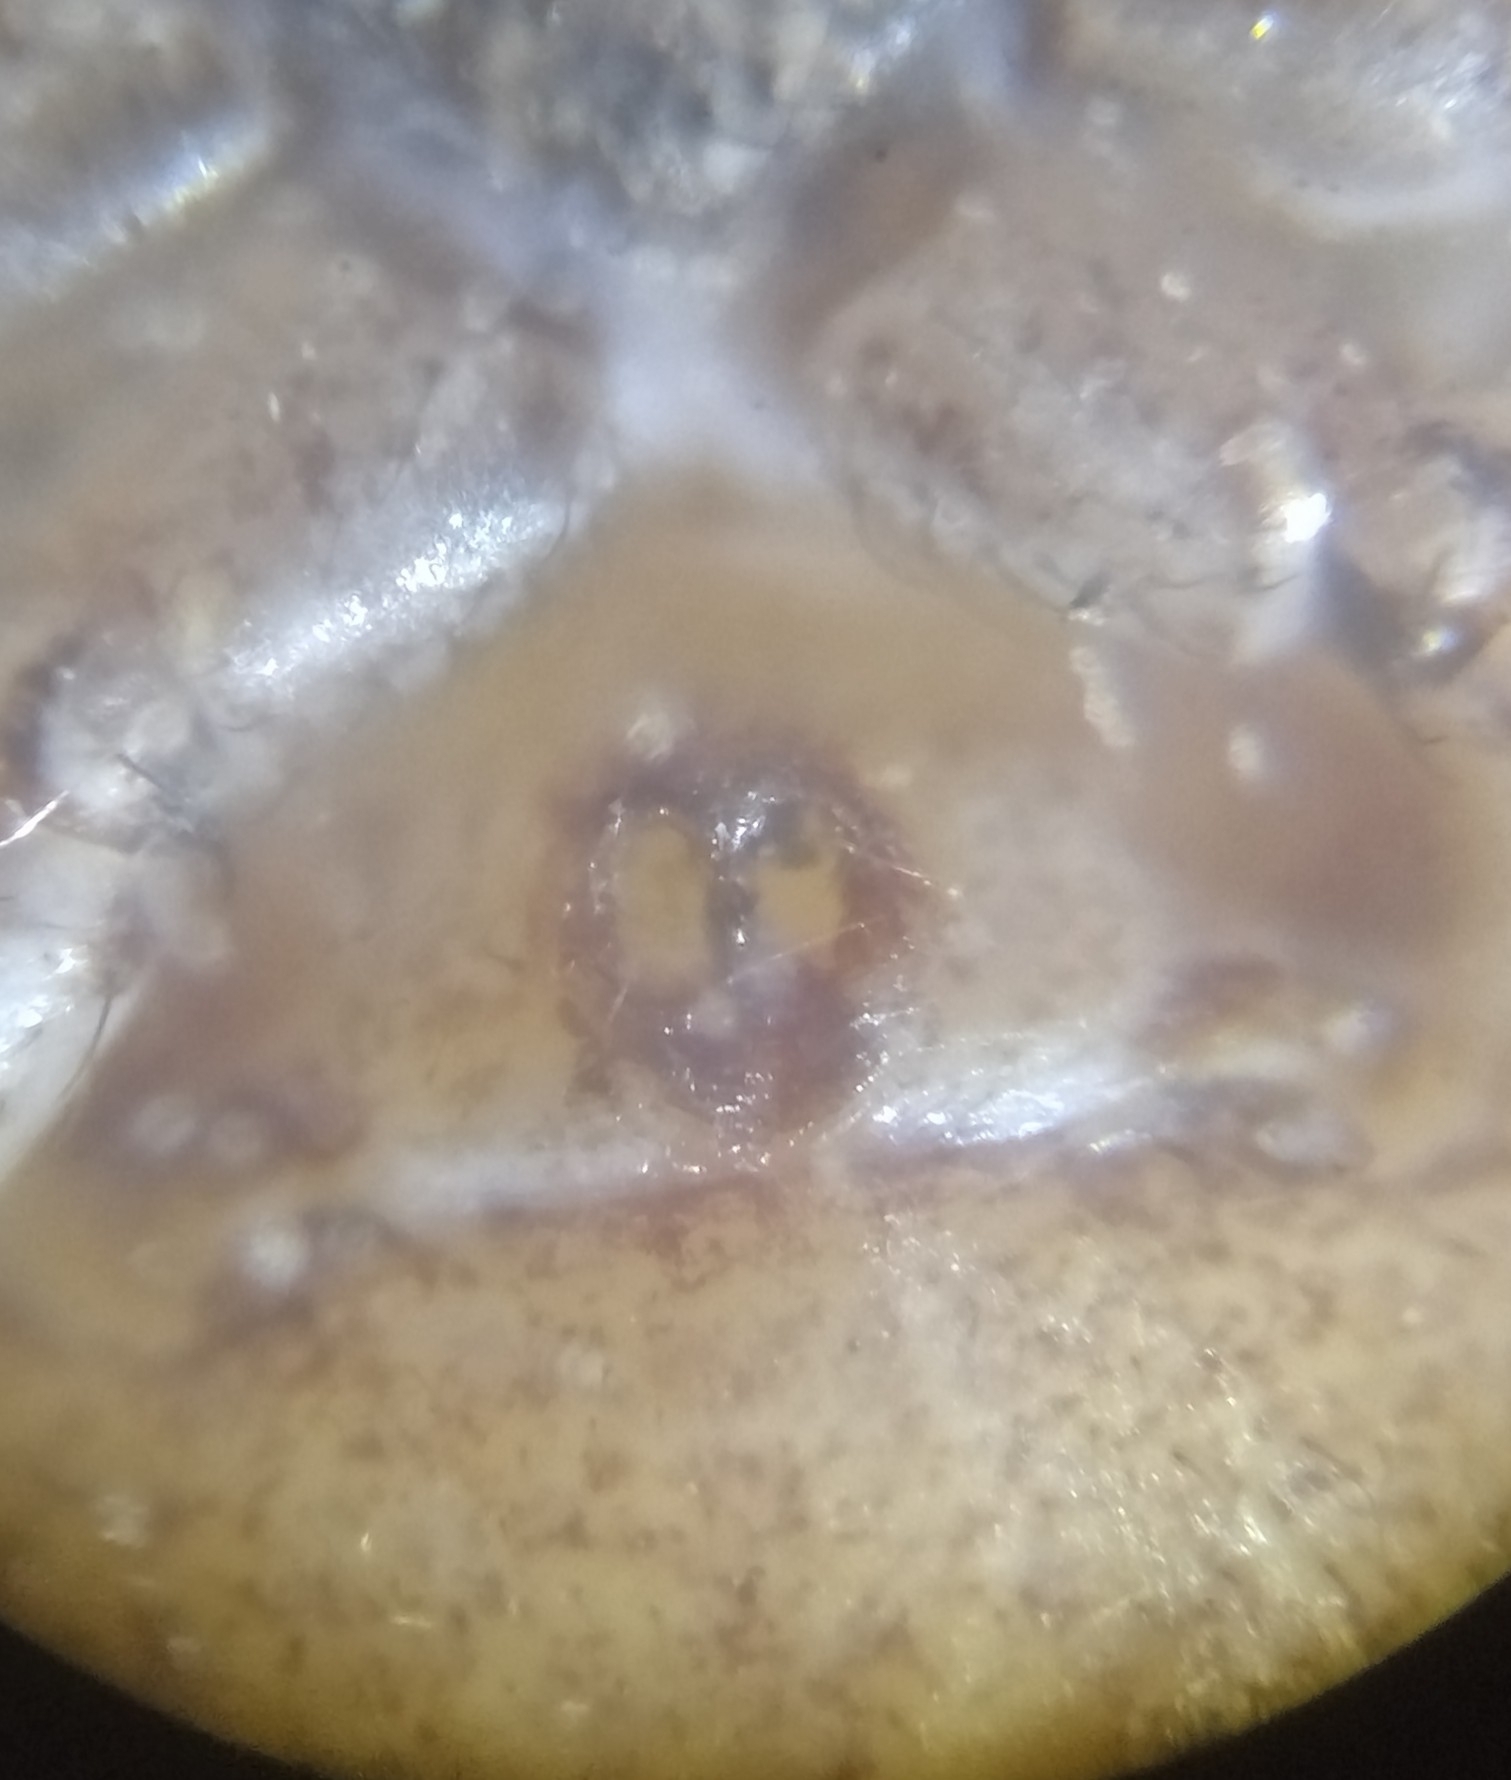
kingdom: Animalia
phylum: Arthropoda
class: Arachnida
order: Araneae
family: Thomisidae
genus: Xysticus
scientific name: Xysticus kochi
